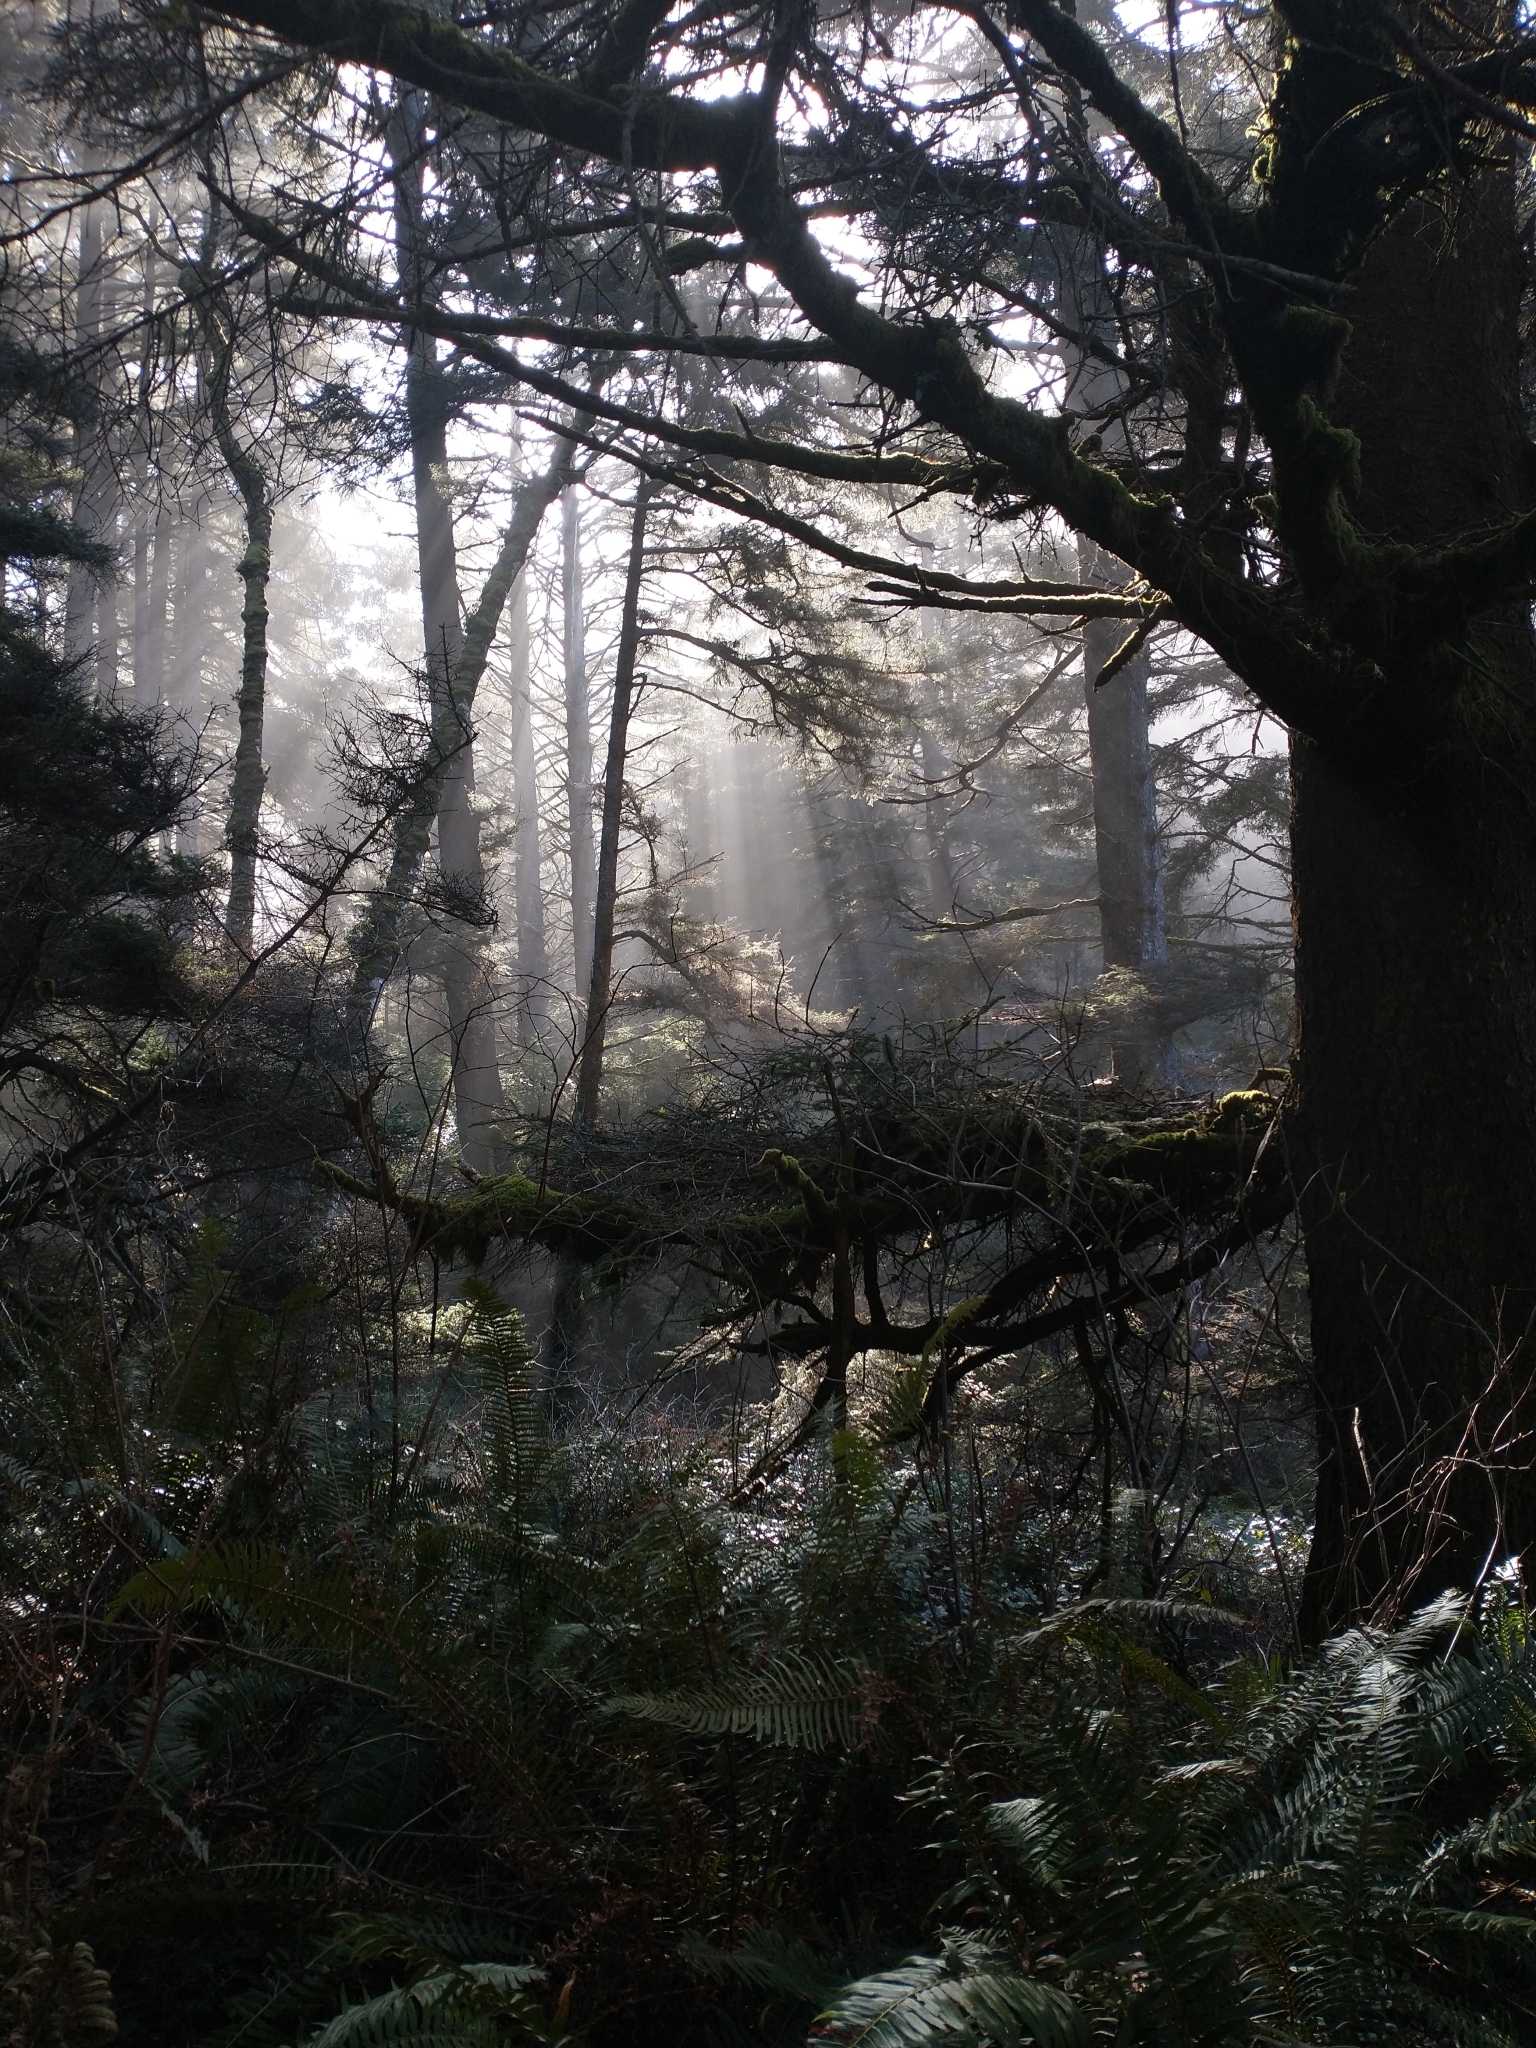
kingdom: Plantae
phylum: Tracheophyta
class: Polypodiopsida
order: Polypodiales
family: Dryopteridaceae
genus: Polystichum
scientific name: Polystichum munitum
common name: Western sword-fern
